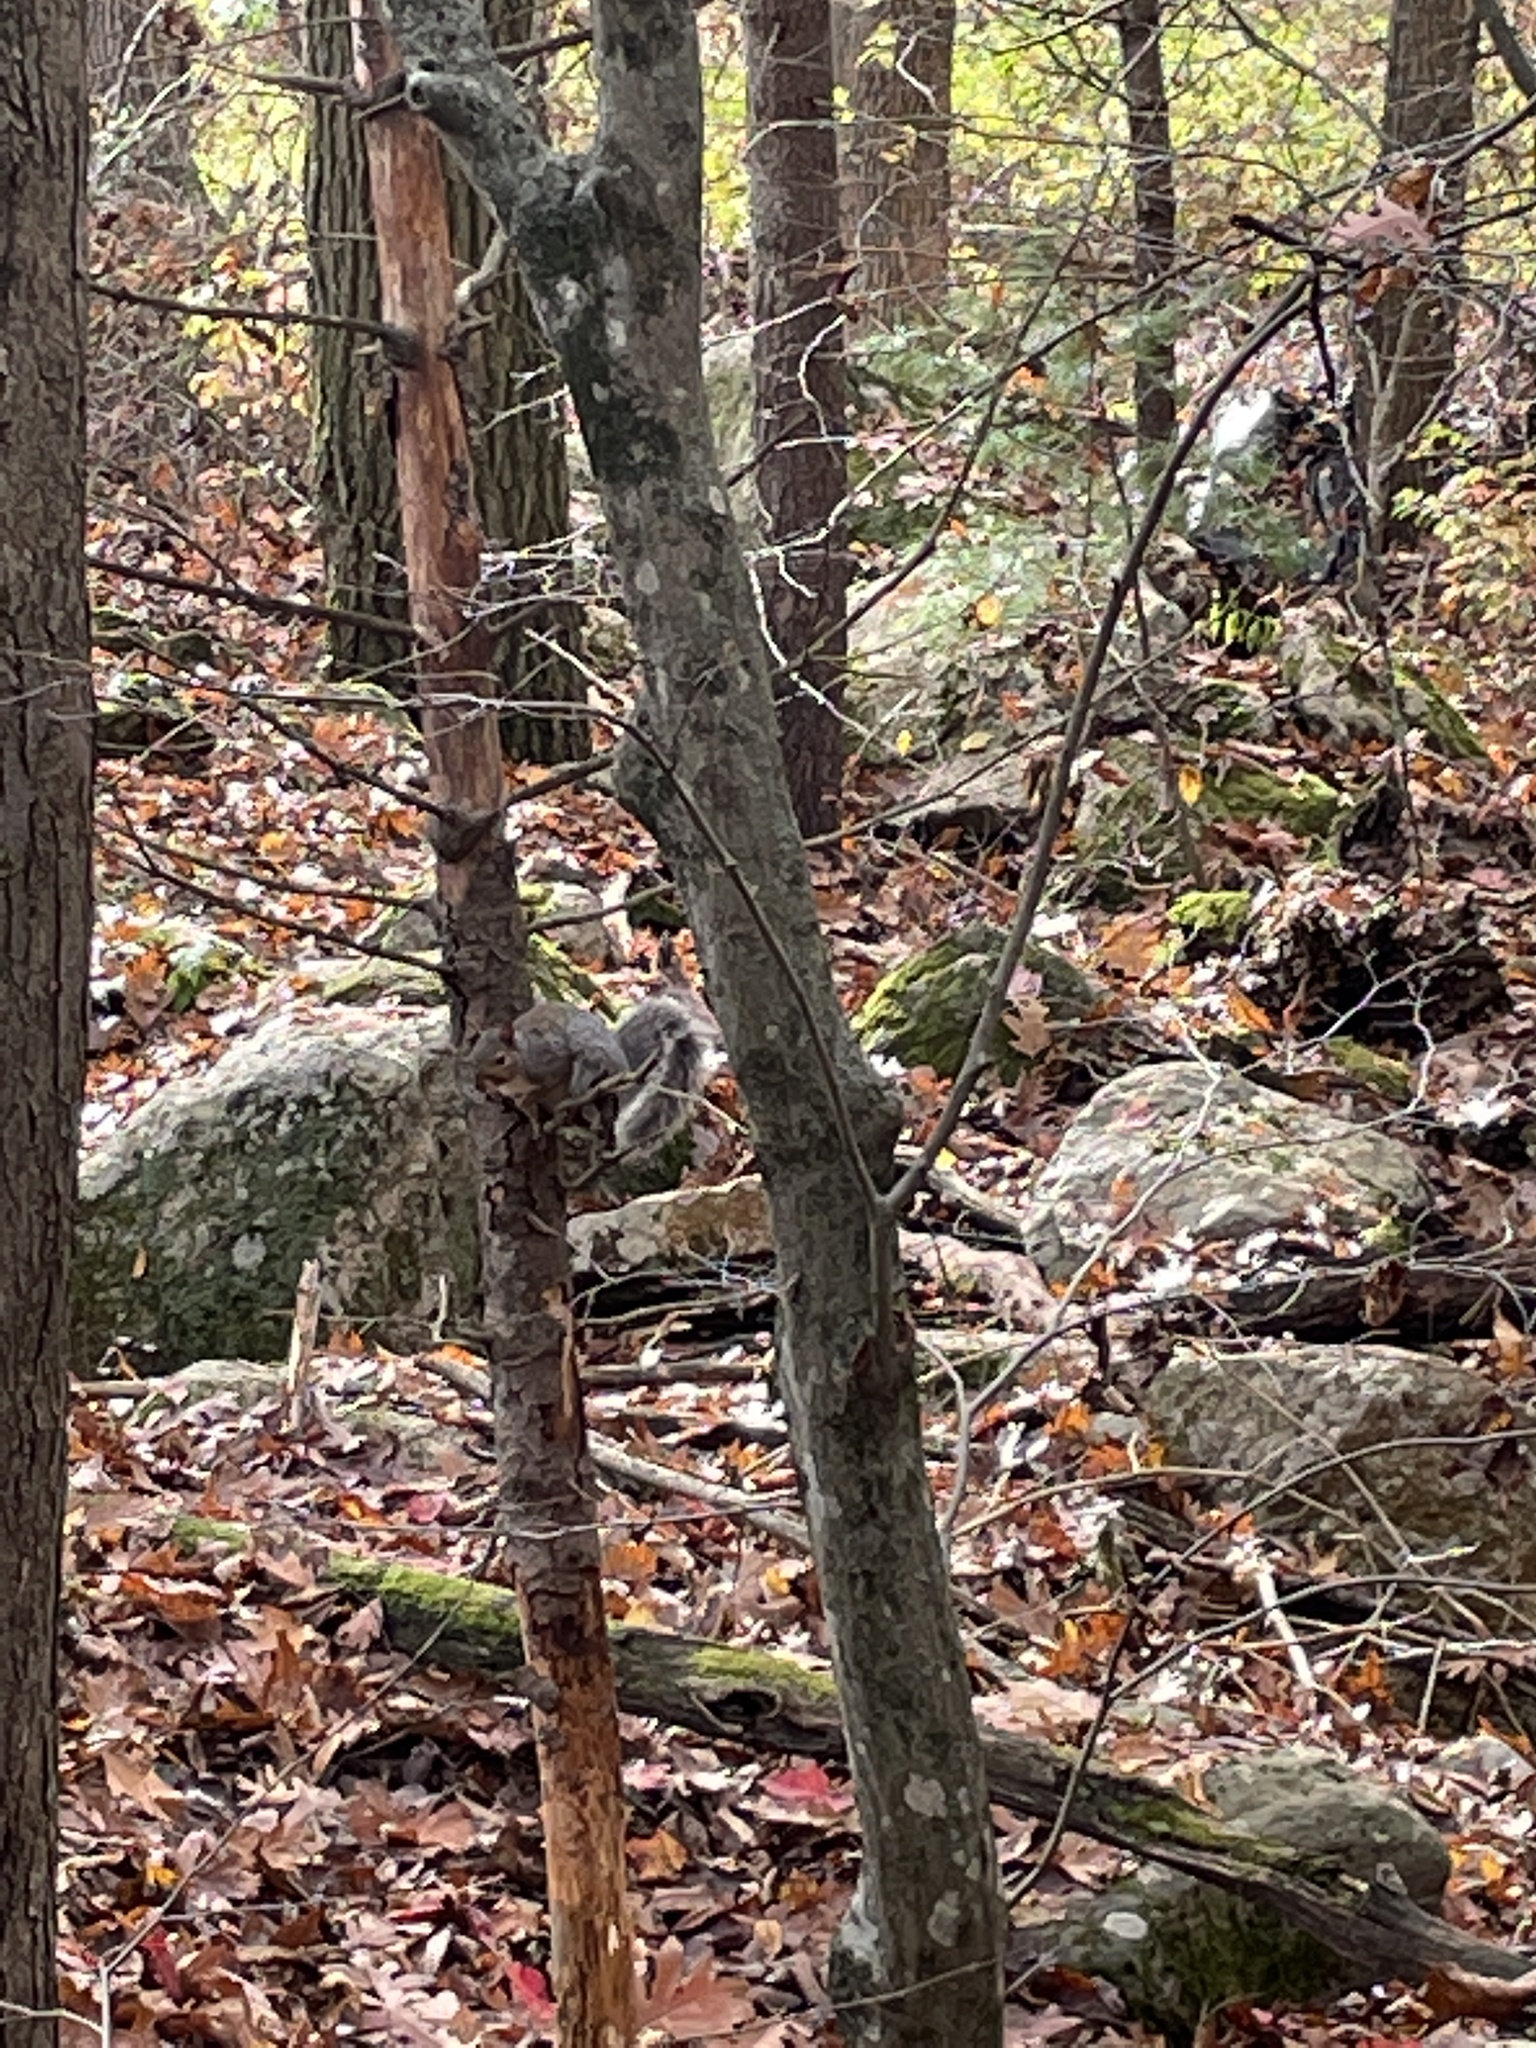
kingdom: Animalia
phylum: Chordata
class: Mammalia
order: Rodentia
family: Sciuridae
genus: Sciurus
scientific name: Sciurus carolinensis
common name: Eastern gray squirrel
